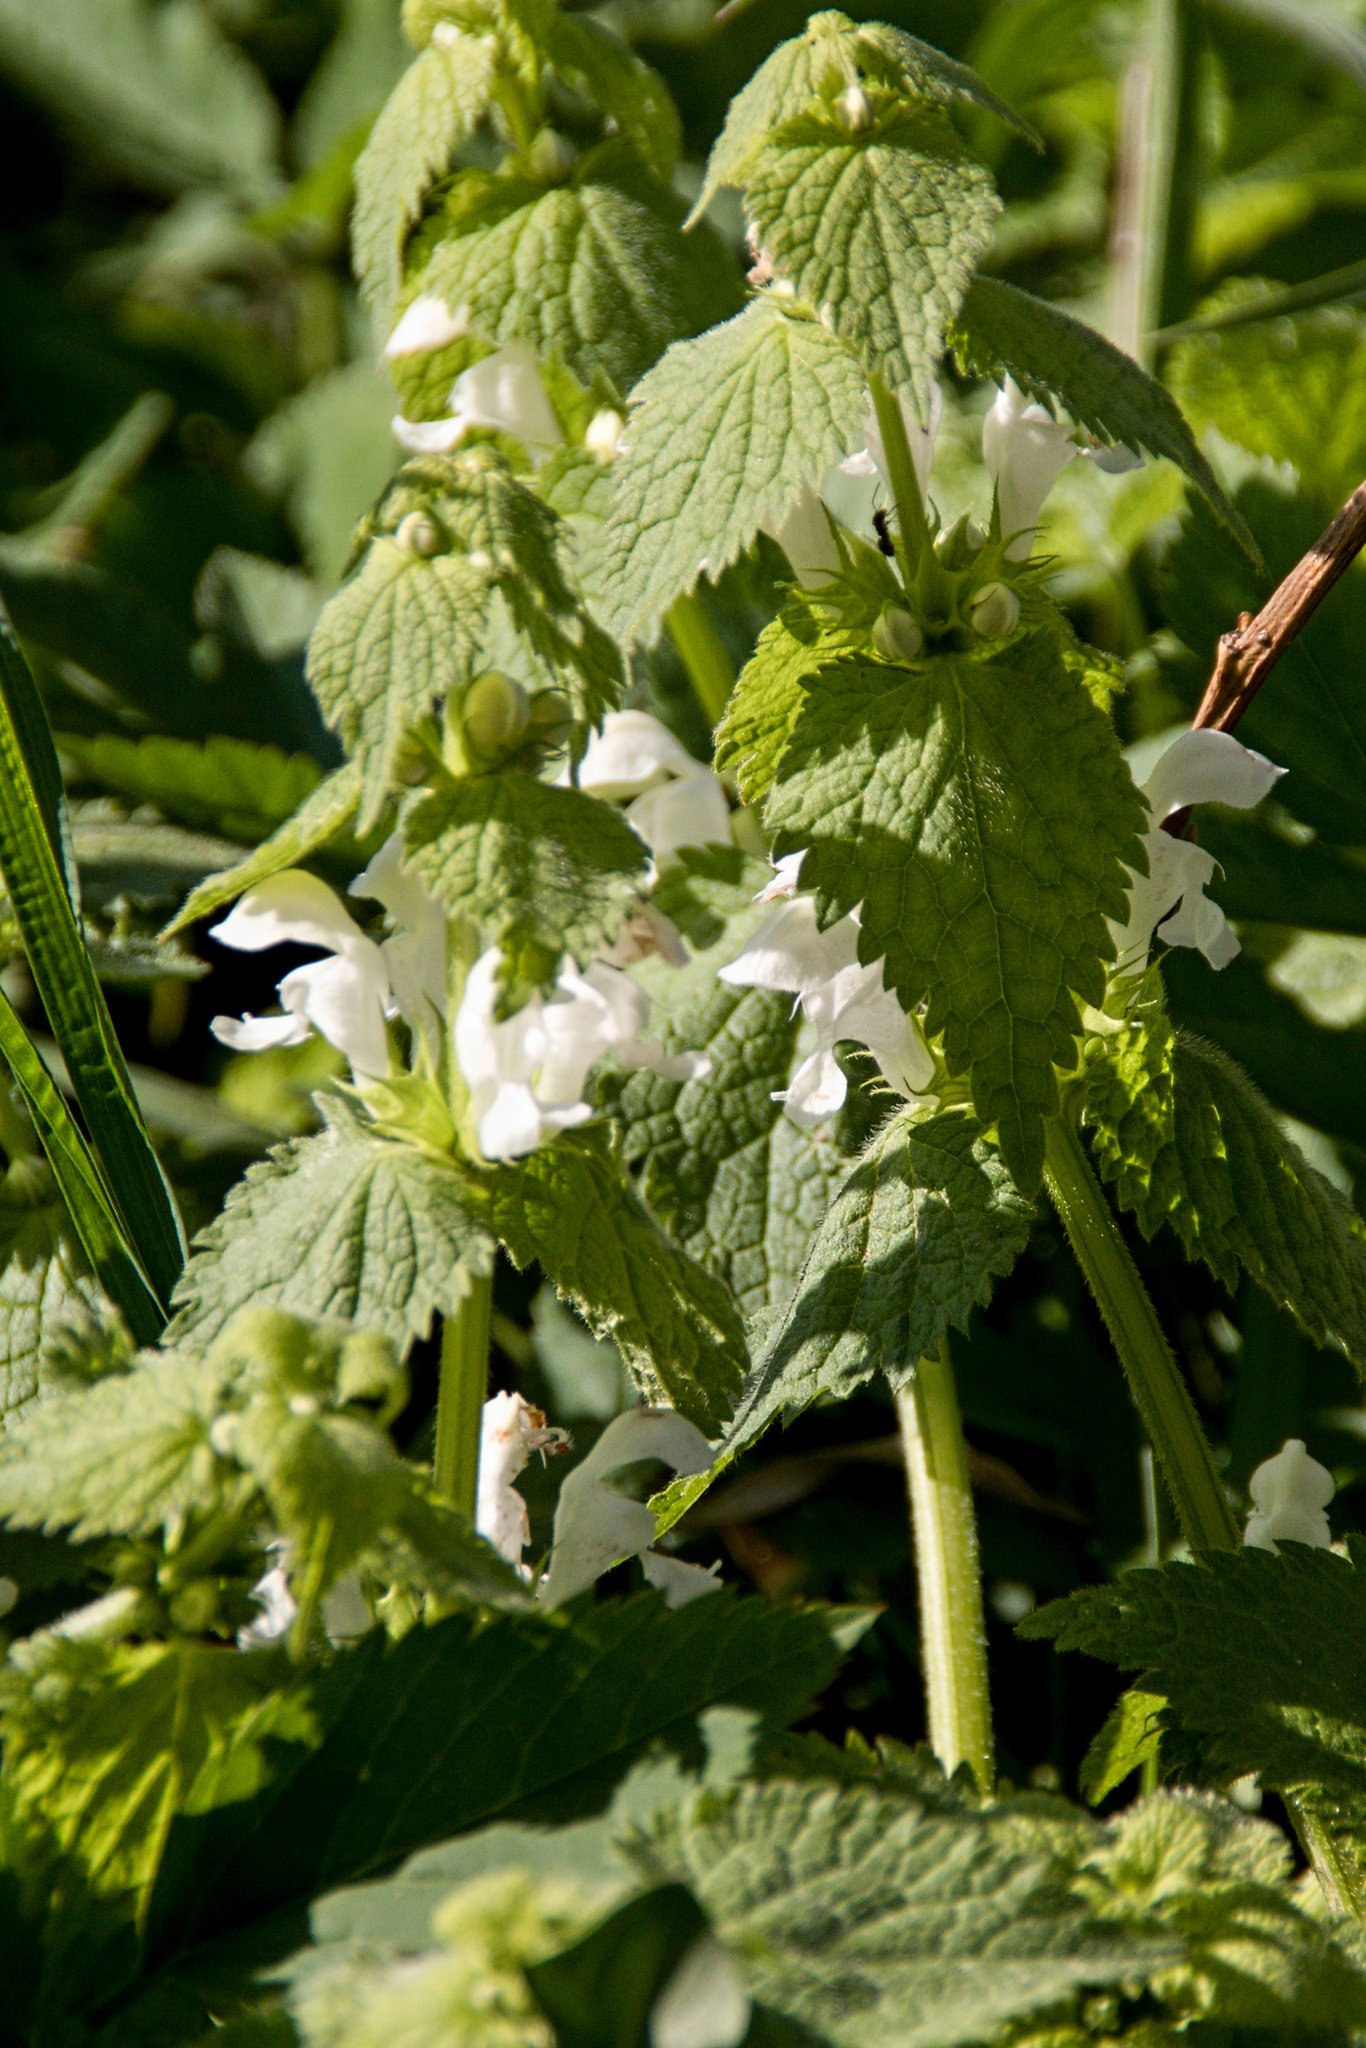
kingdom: Plantae
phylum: Tracheophyta
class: Magnoliopsida
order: Lamiales
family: Lamiaceae
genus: Lamium
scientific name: Lamium maculatum
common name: Spotted dead-nettle
